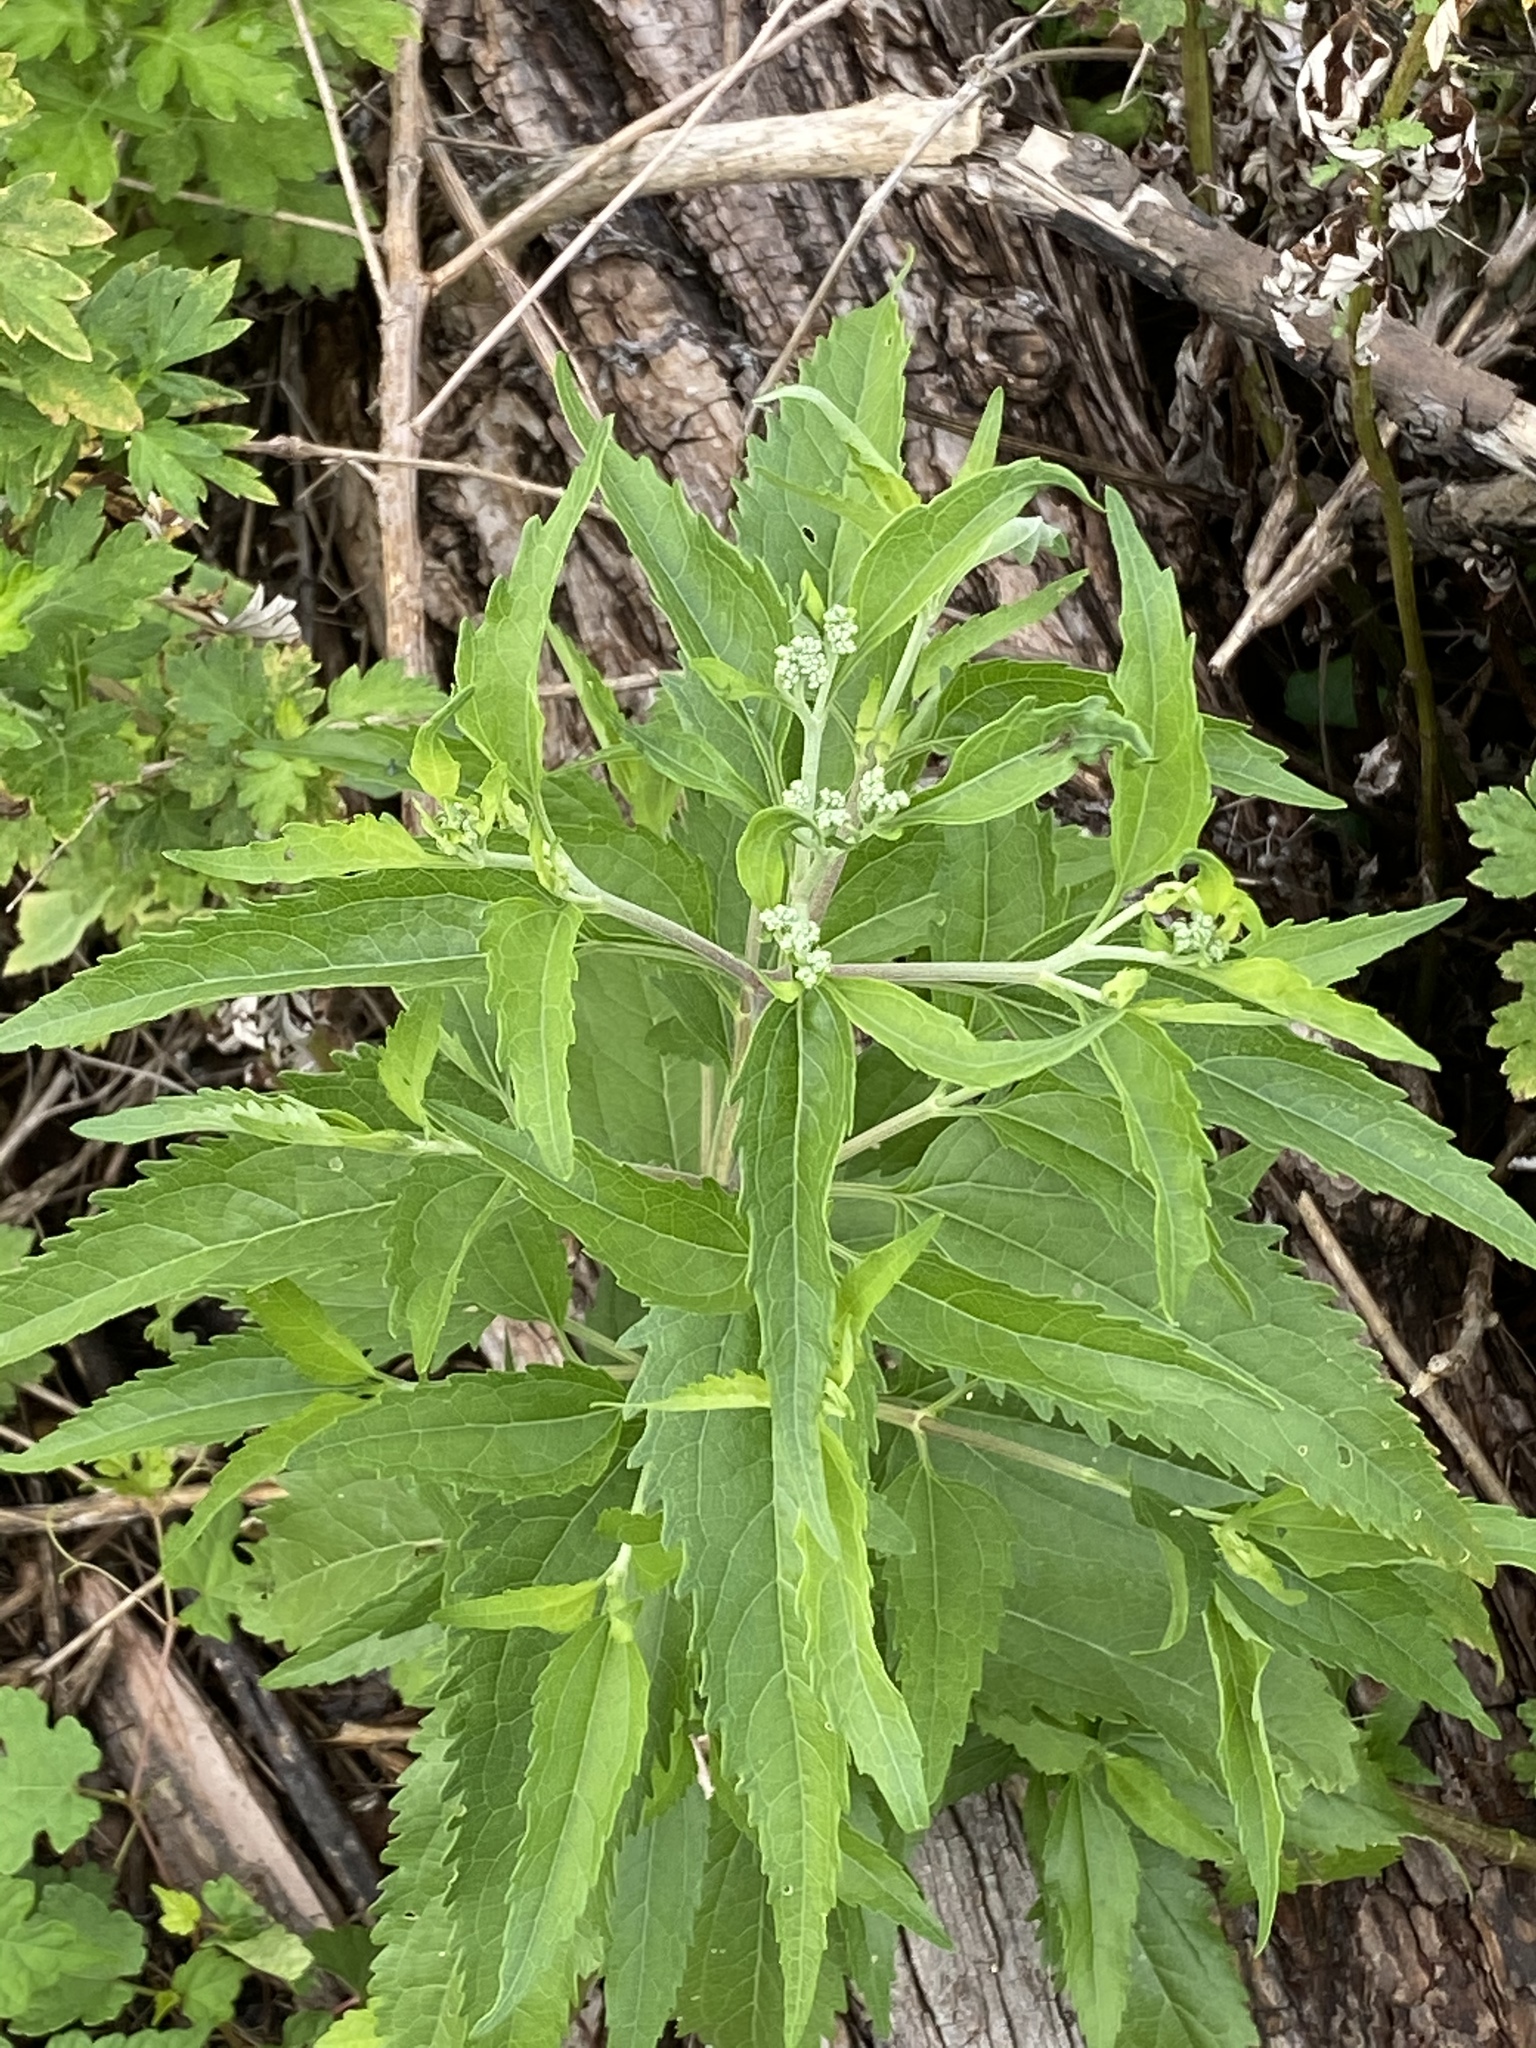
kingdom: Plantae
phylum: Tracheophyta
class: Magnoliopsida
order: Asterales
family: Asteraceae
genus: Eupatorium
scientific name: Eupatorium serotinum
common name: Late boneset
